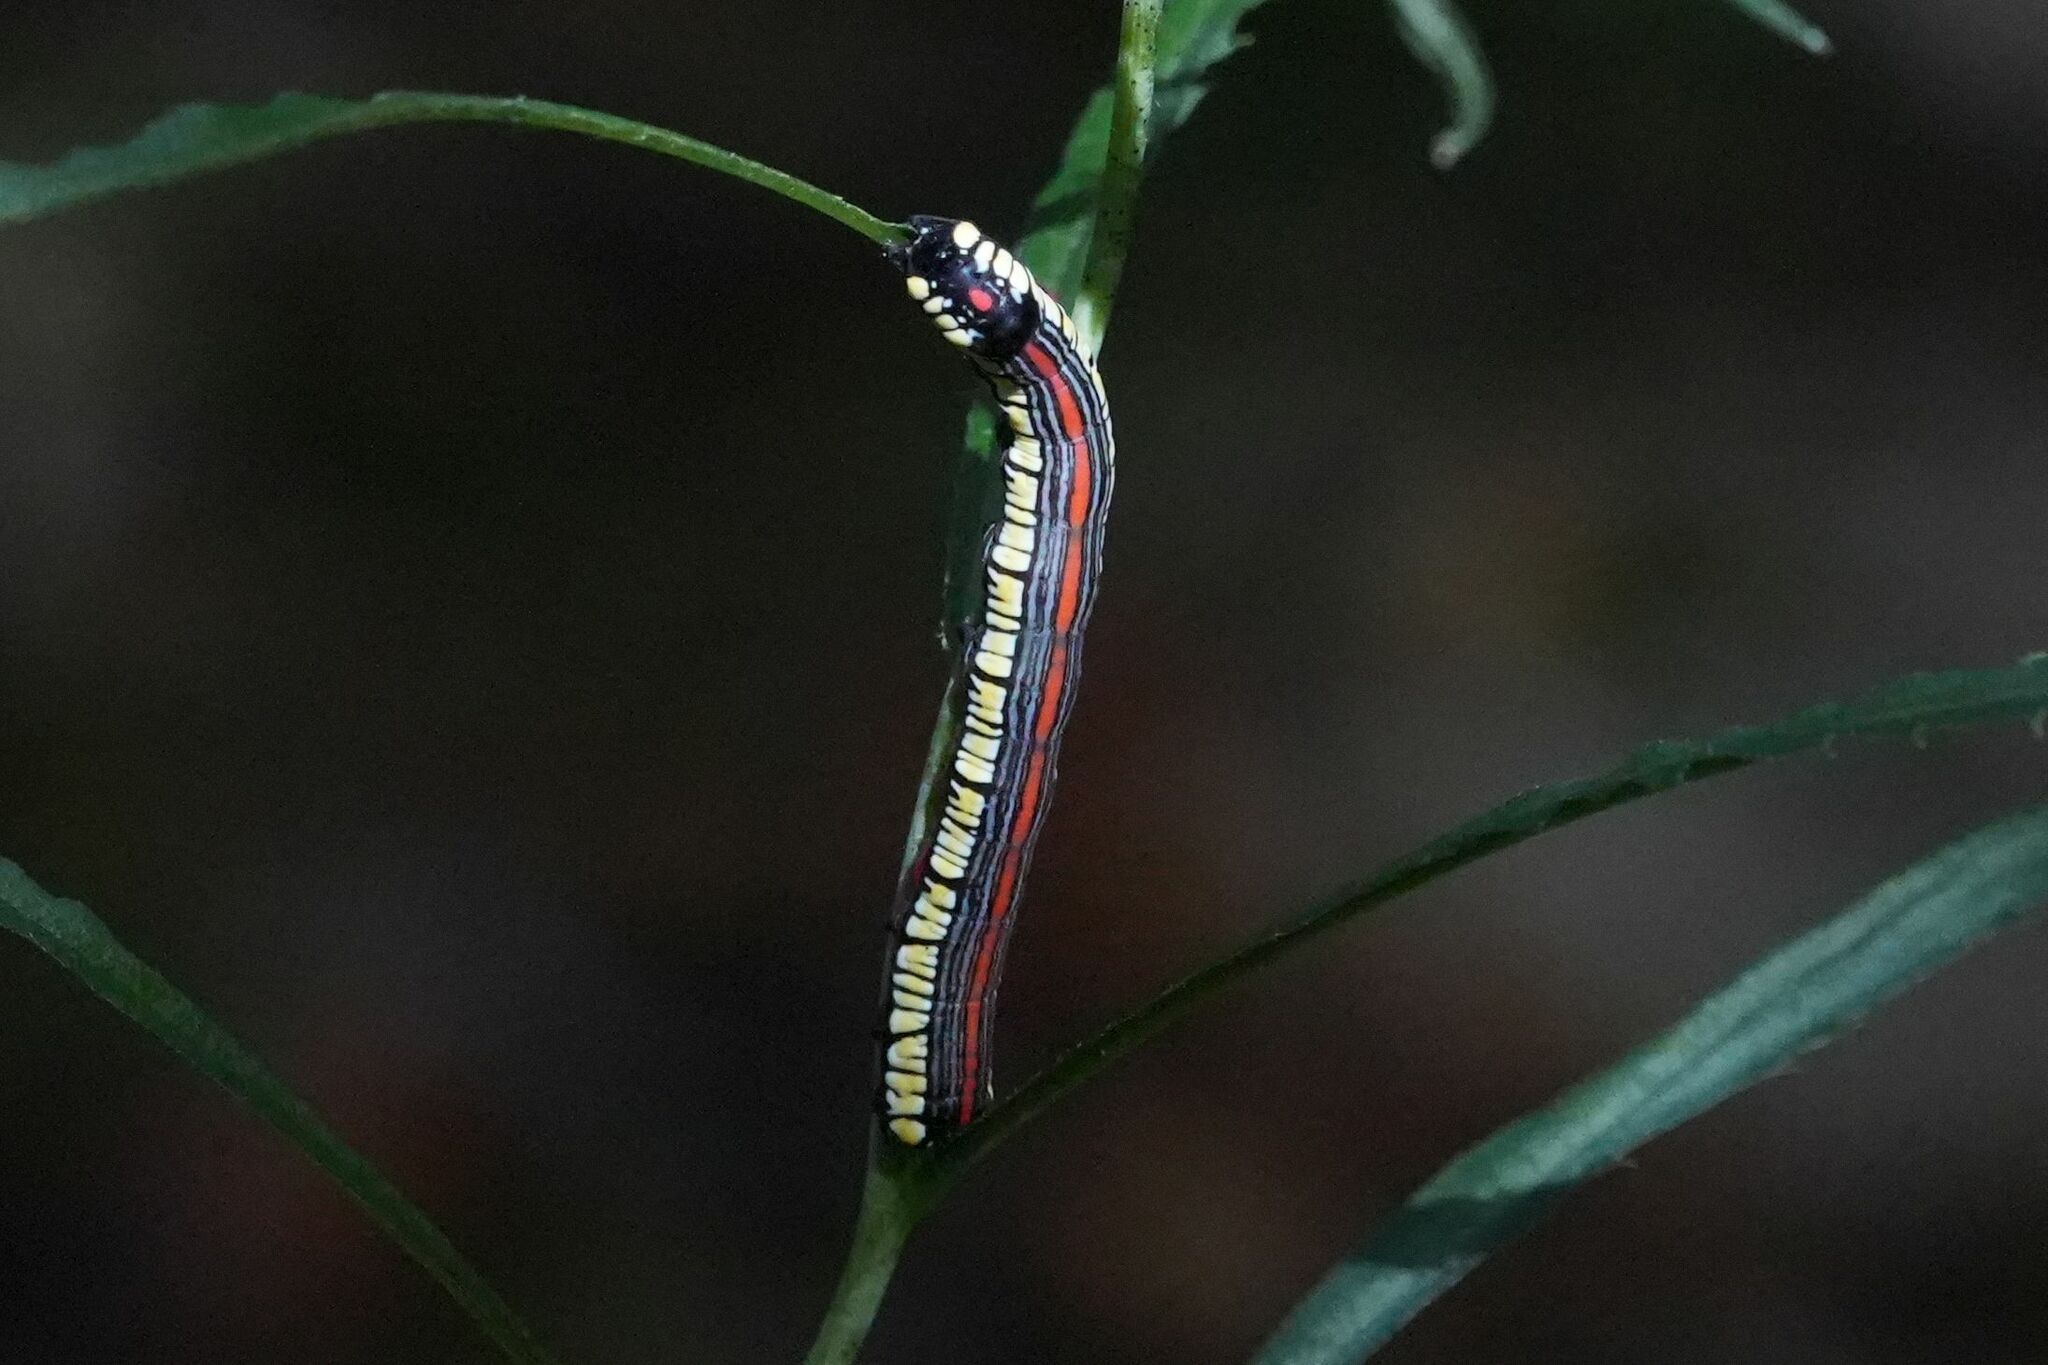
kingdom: Animalia
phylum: Arthropoda
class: Insecta
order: Lepidoptera
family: Noctuidae
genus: Cucullia
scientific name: Cucullia convexipennis
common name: Brown-hooded owlet
